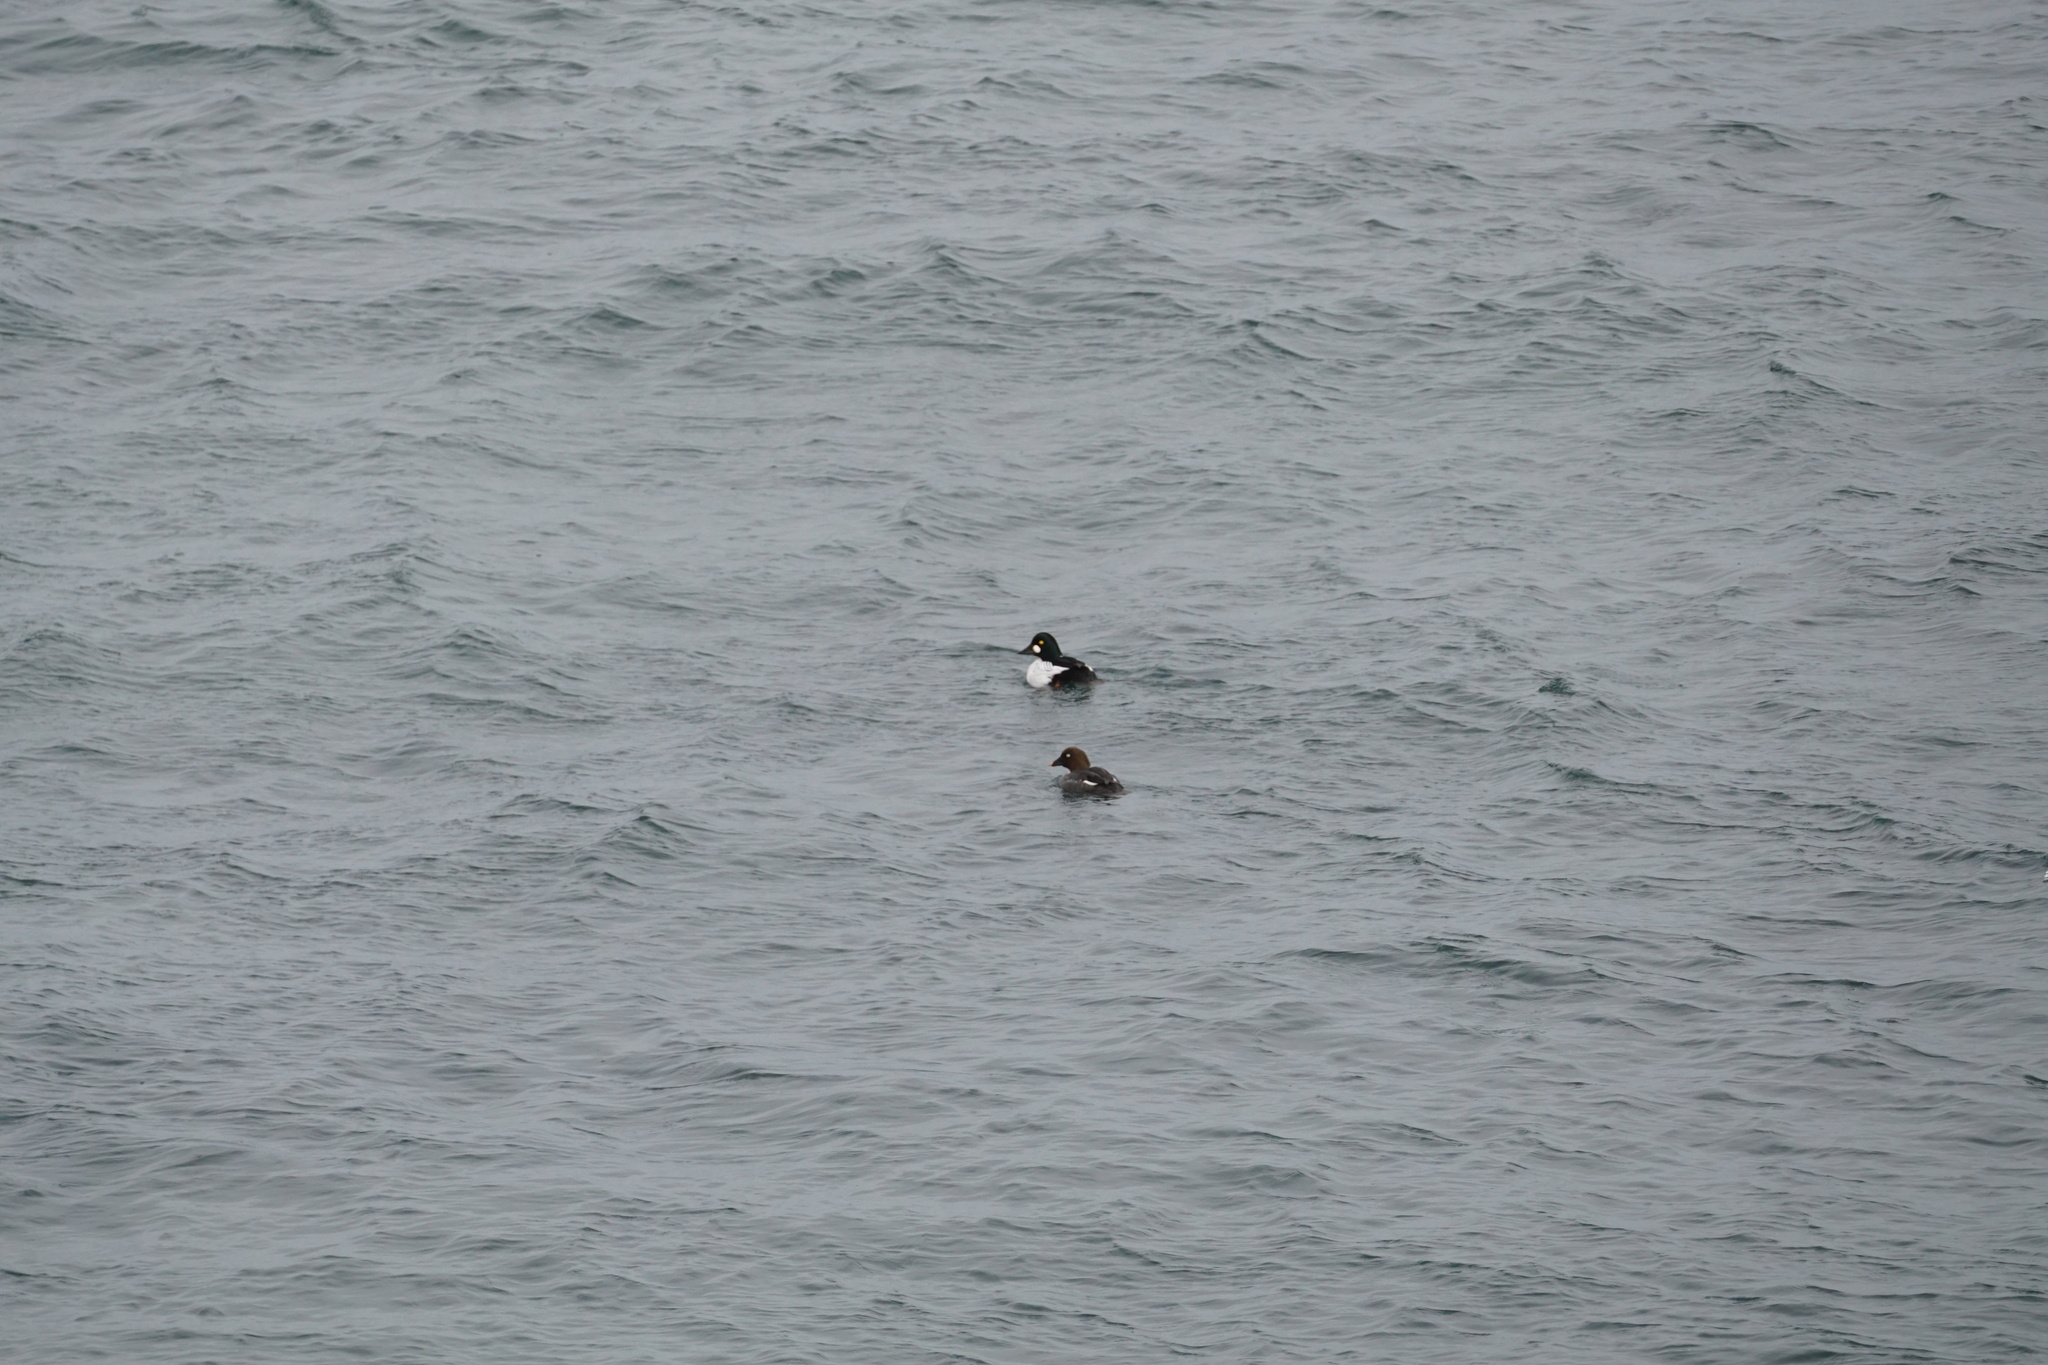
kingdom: Animalia
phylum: Chordata
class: Aves
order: Anseriformes
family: Anatidae
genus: Bucephala
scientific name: Bucephala clangula
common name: Common goldeneye
